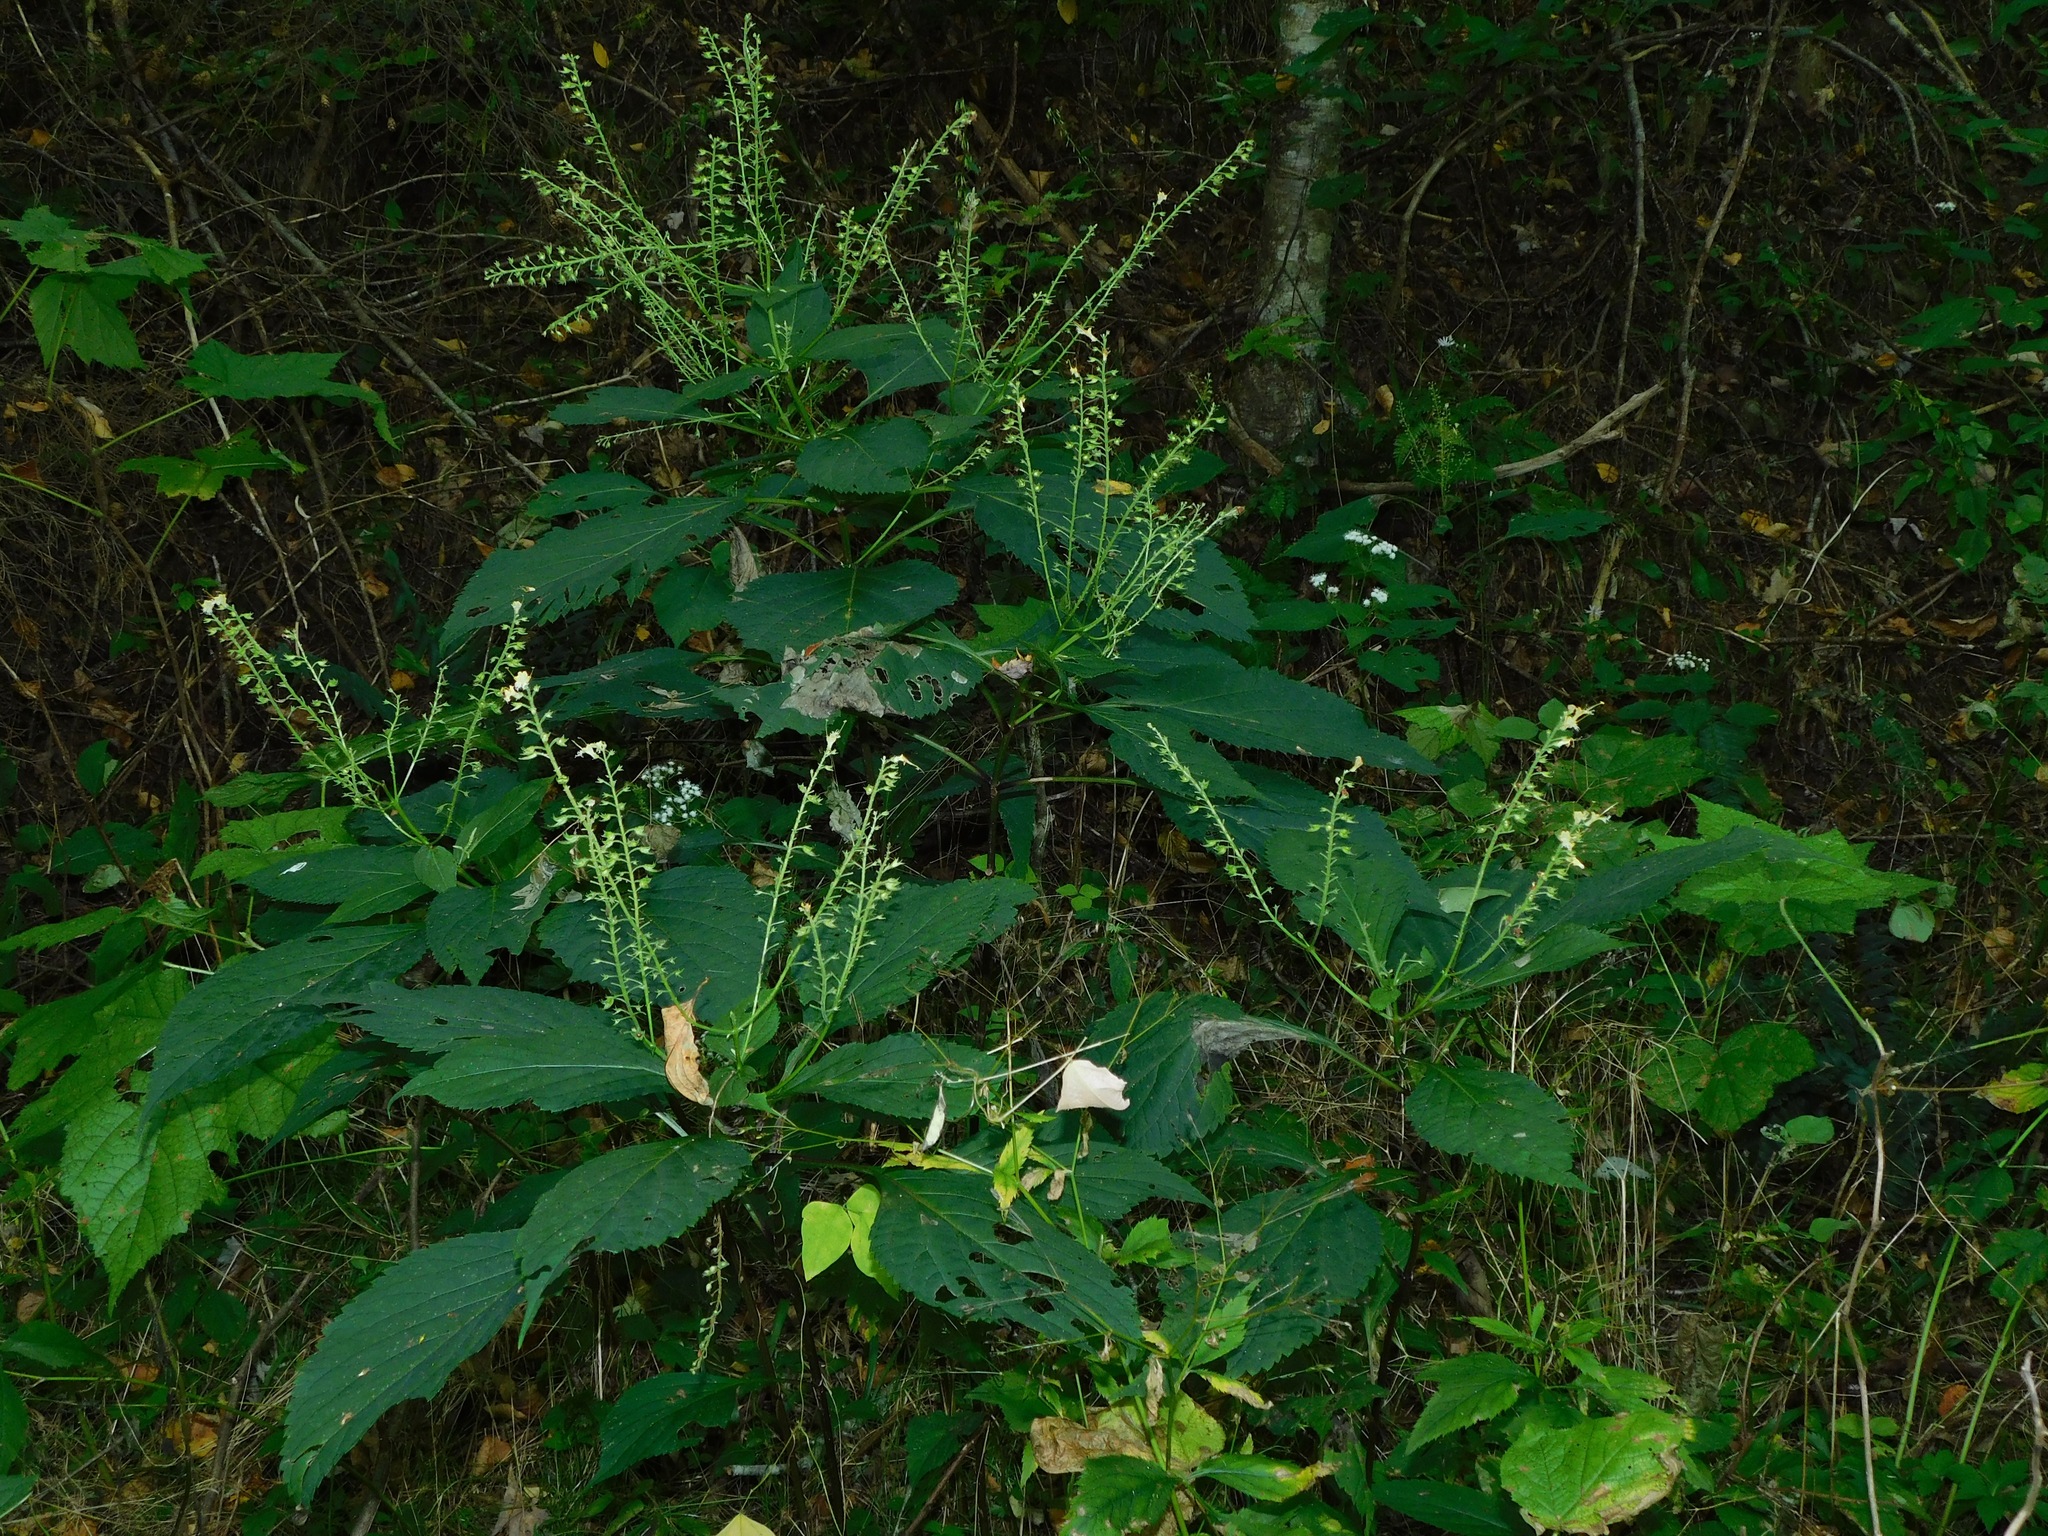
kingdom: Plantae
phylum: Tracheophyta
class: Magnoliopsida
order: Lamiales
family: Lamiaceae
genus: Collinsonia
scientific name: Collinsonia canadensis
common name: Northern horsebalm
